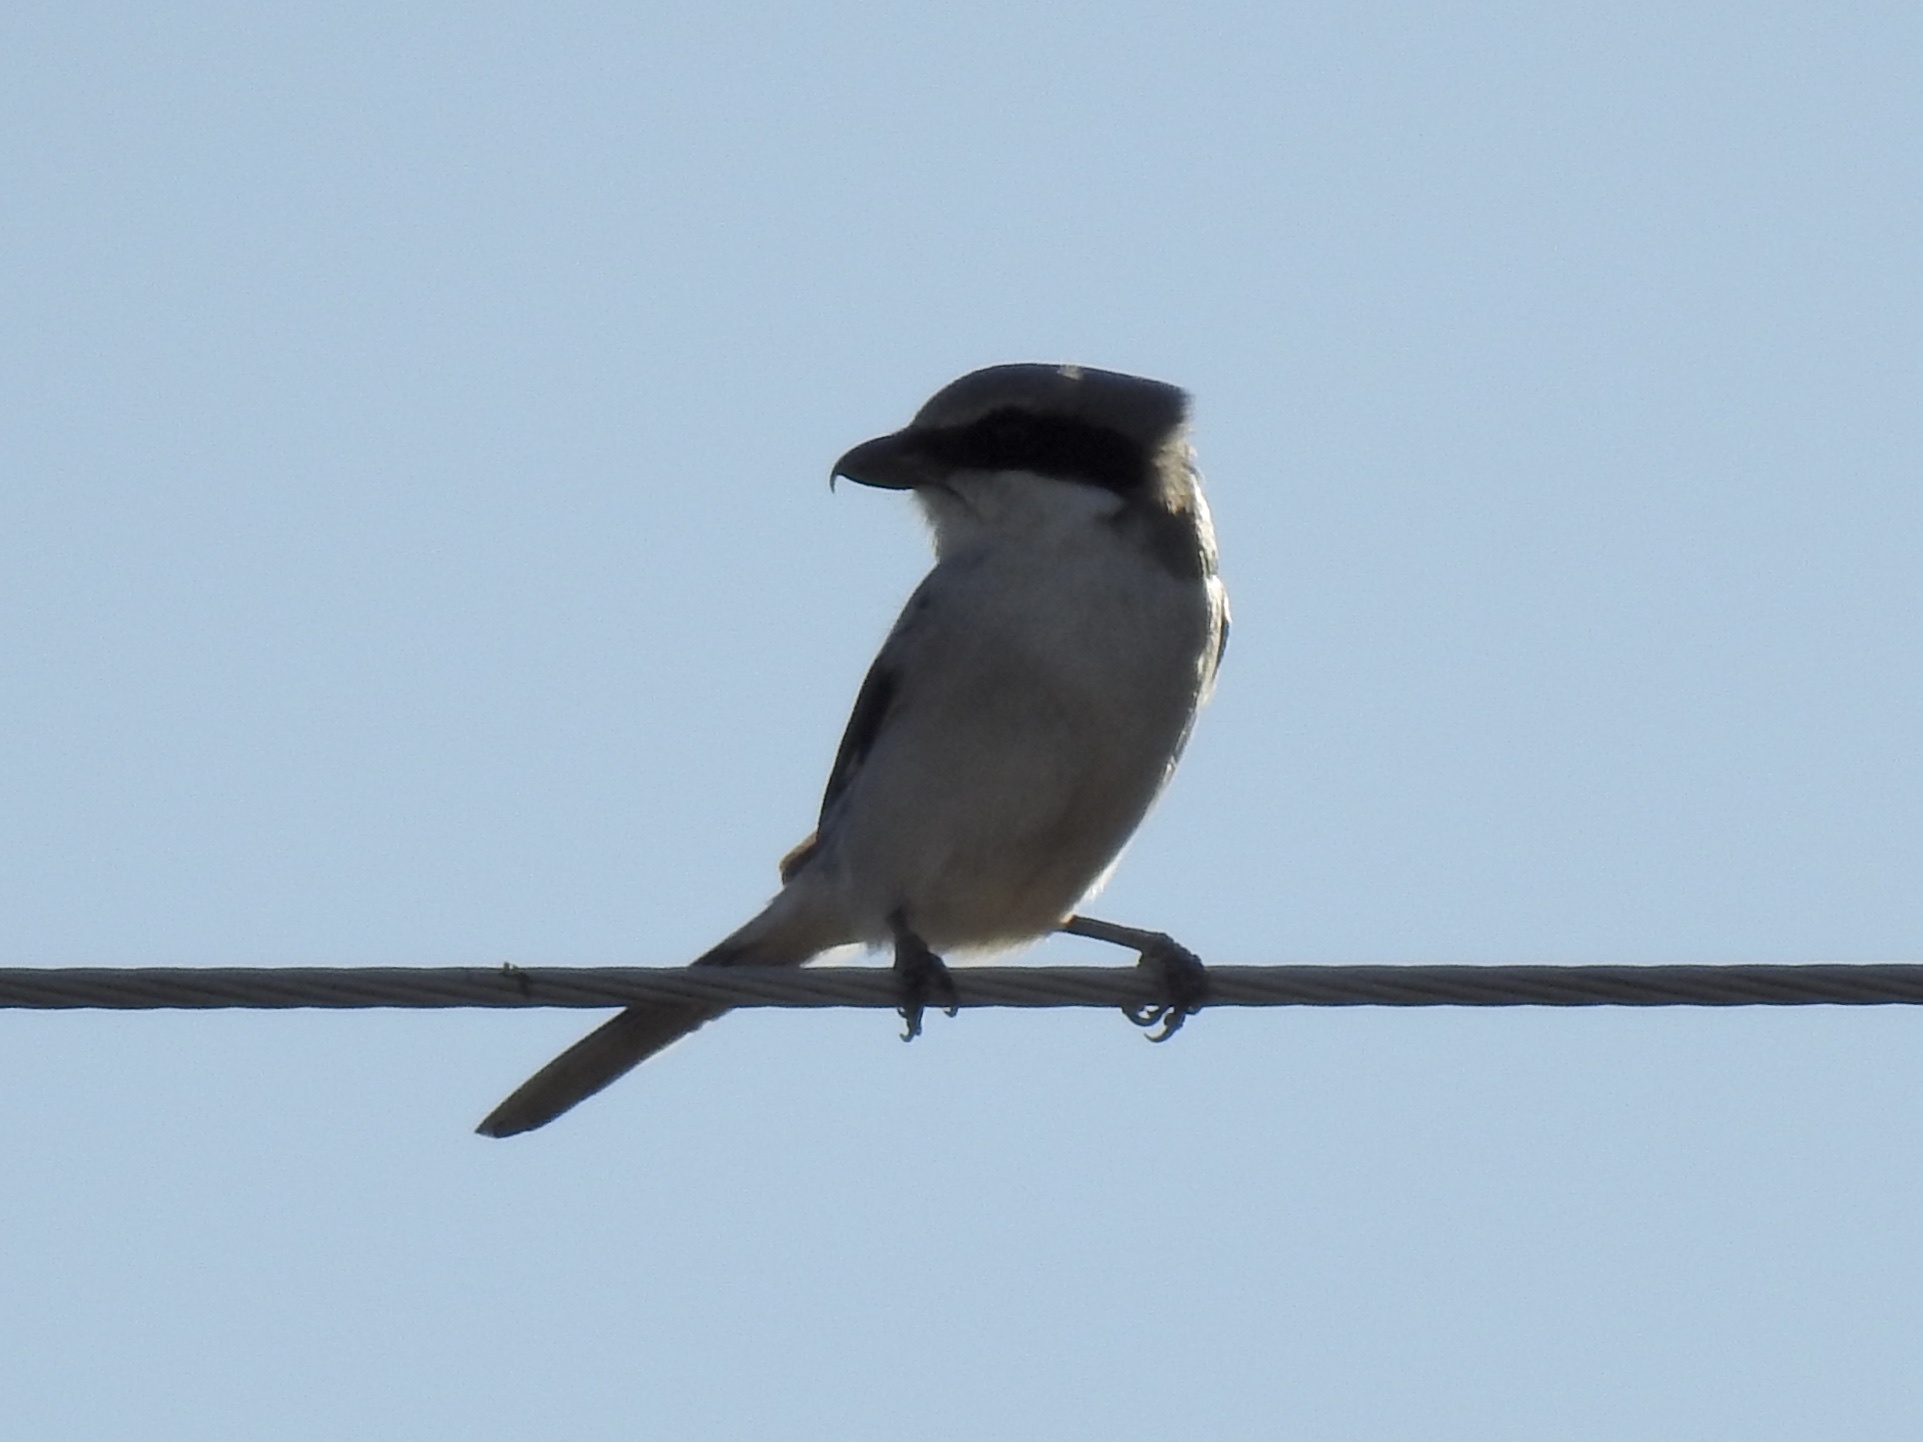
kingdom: Animalia
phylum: Chordata
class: Aves
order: Passeriformes
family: Laniidae
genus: Lanius
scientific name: Lanius ludovicianus
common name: Loggerhead shrike
